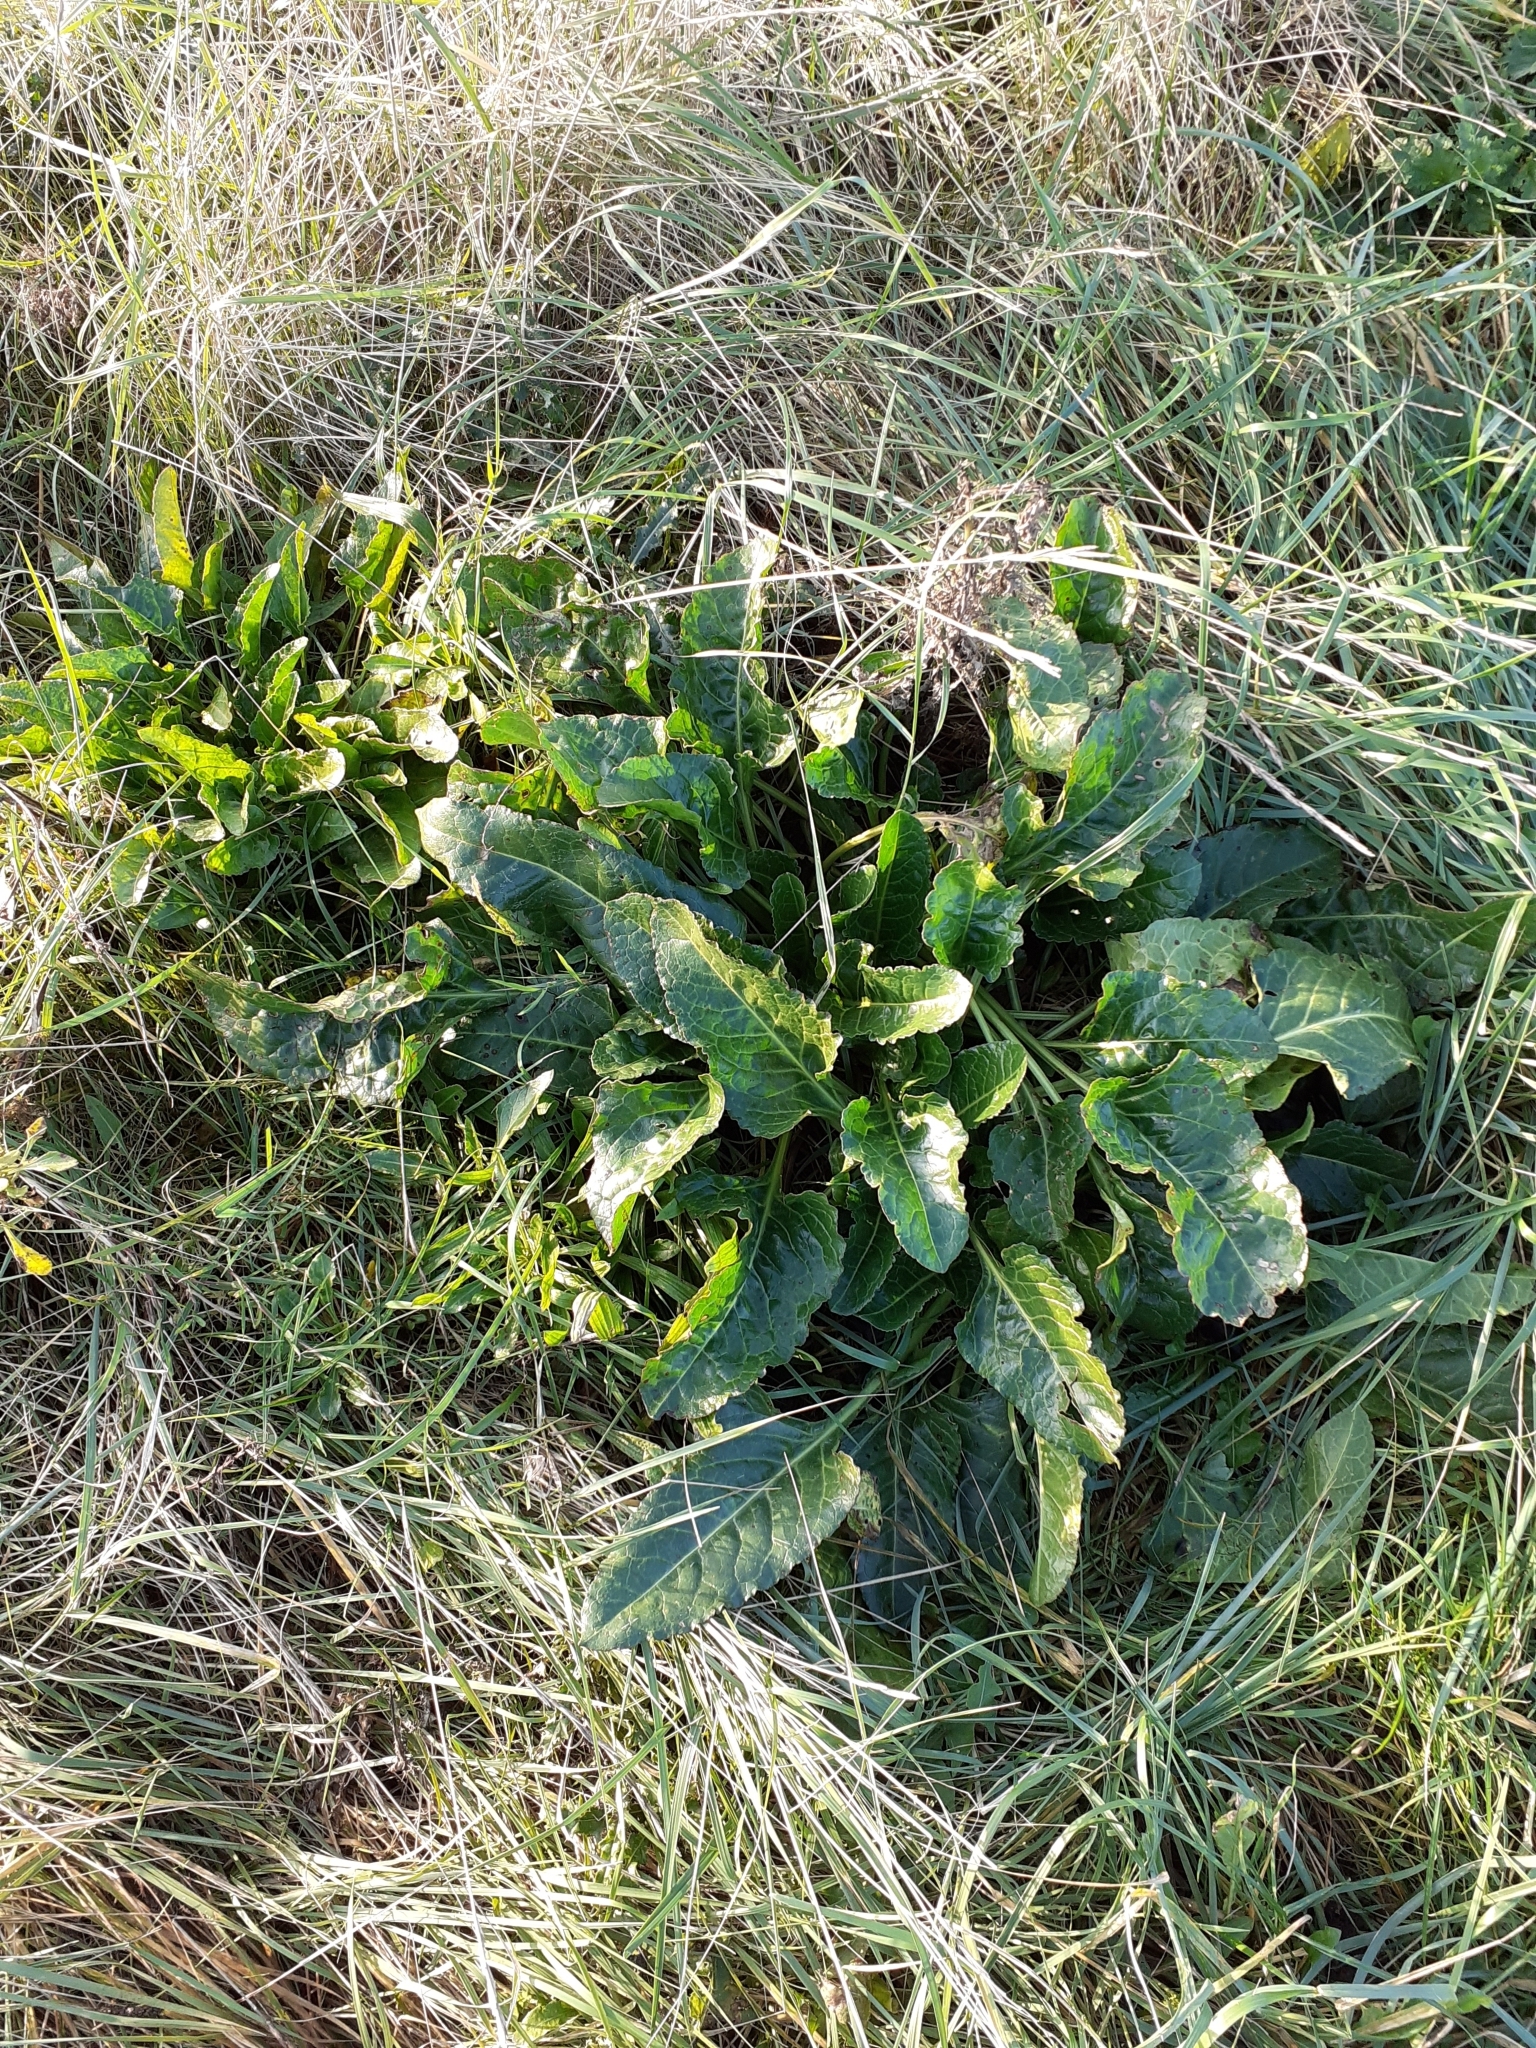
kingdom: Plantae
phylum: Tracheophyta
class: Magnoliopsida
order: Caryophyllales
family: Amaranthaceae
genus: Beta
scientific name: Beta vulgaris
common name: Beet
